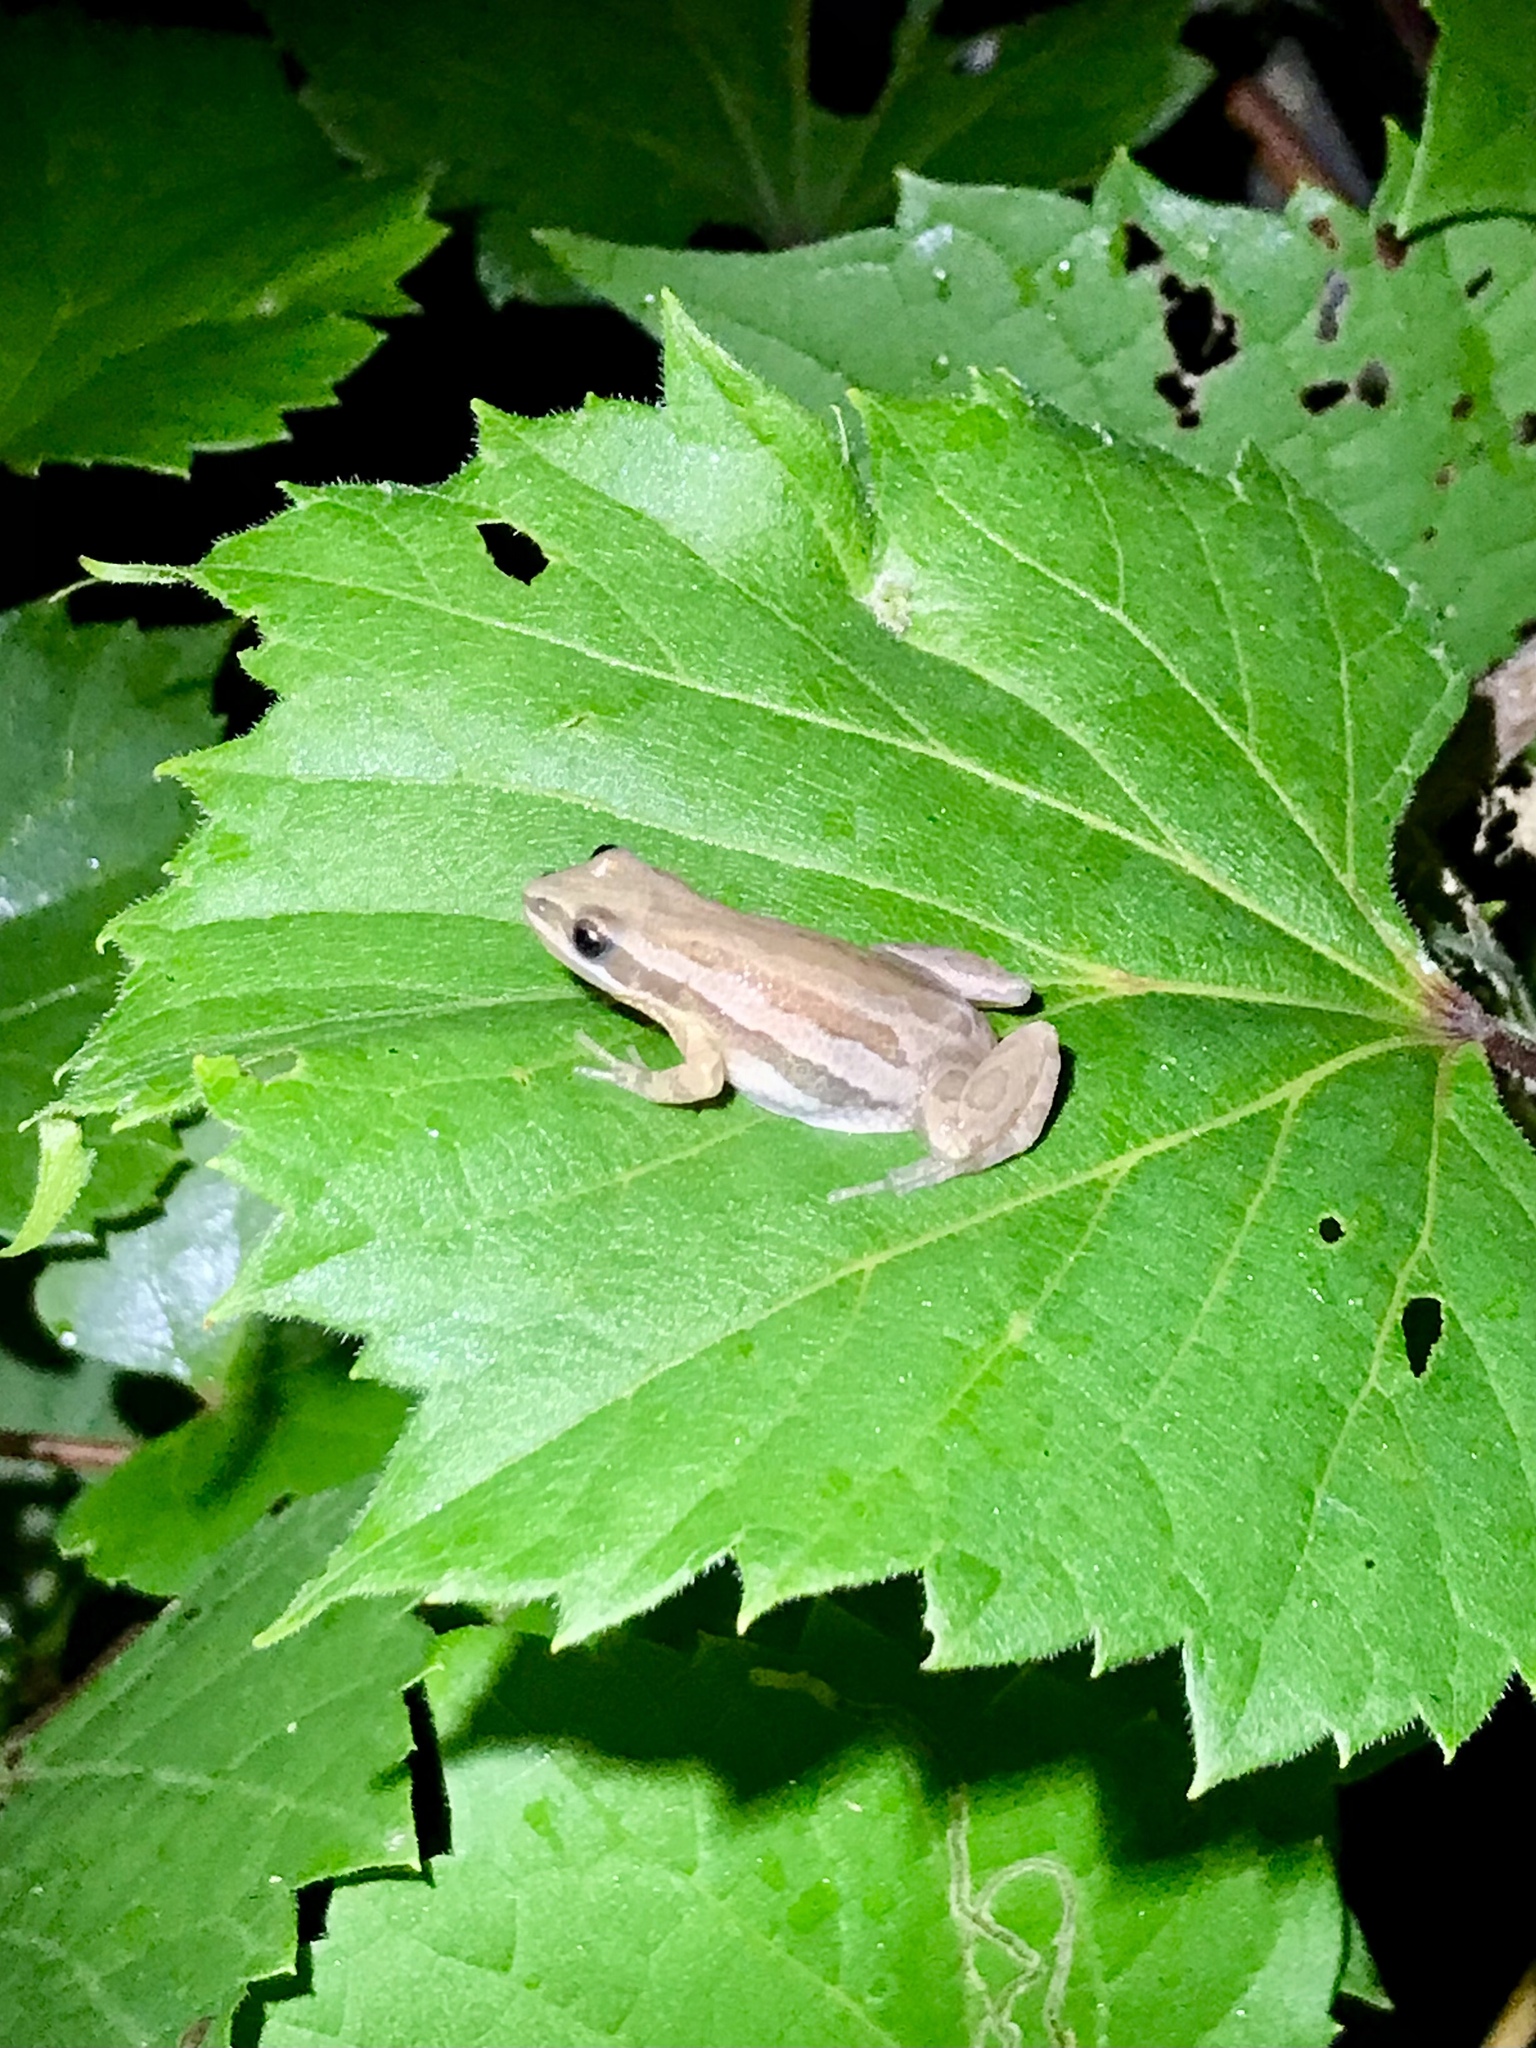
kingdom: Animalia
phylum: Chordata
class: Amphibia
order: Anura
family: Hylidae
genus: Pseudacris
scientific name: Pseudacris maculata
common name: Boreal chorus frog
